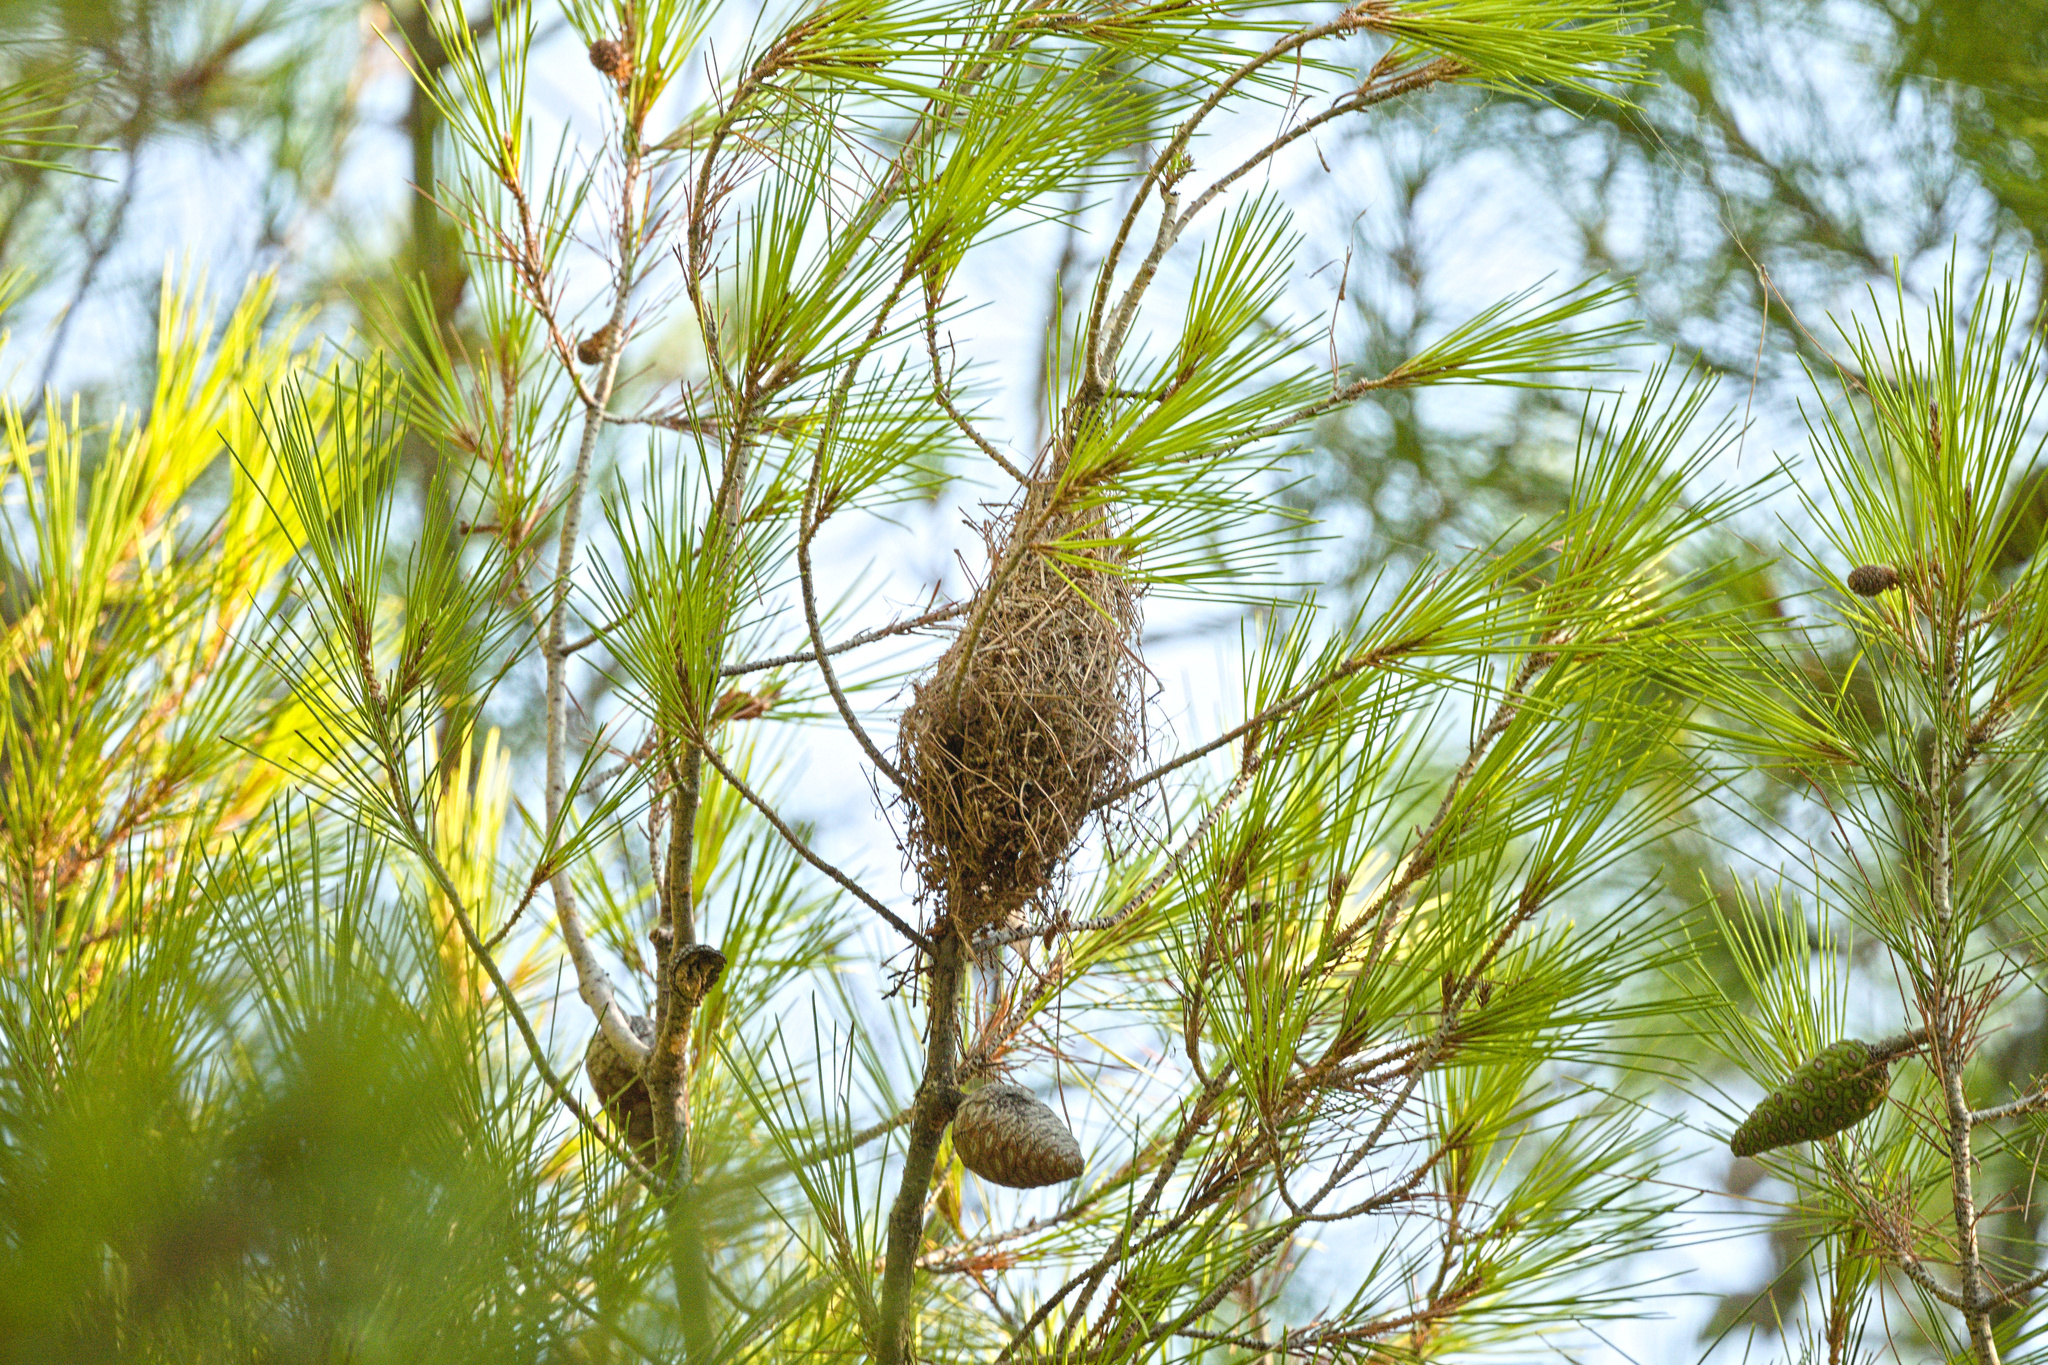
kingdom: Animalia
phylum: Arthropoda
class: Insecta
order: Lepidoptera
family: Notodontidae
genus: Thaumetopoea
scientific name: Thaumetopoea pityocampa
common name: Pine processionary
